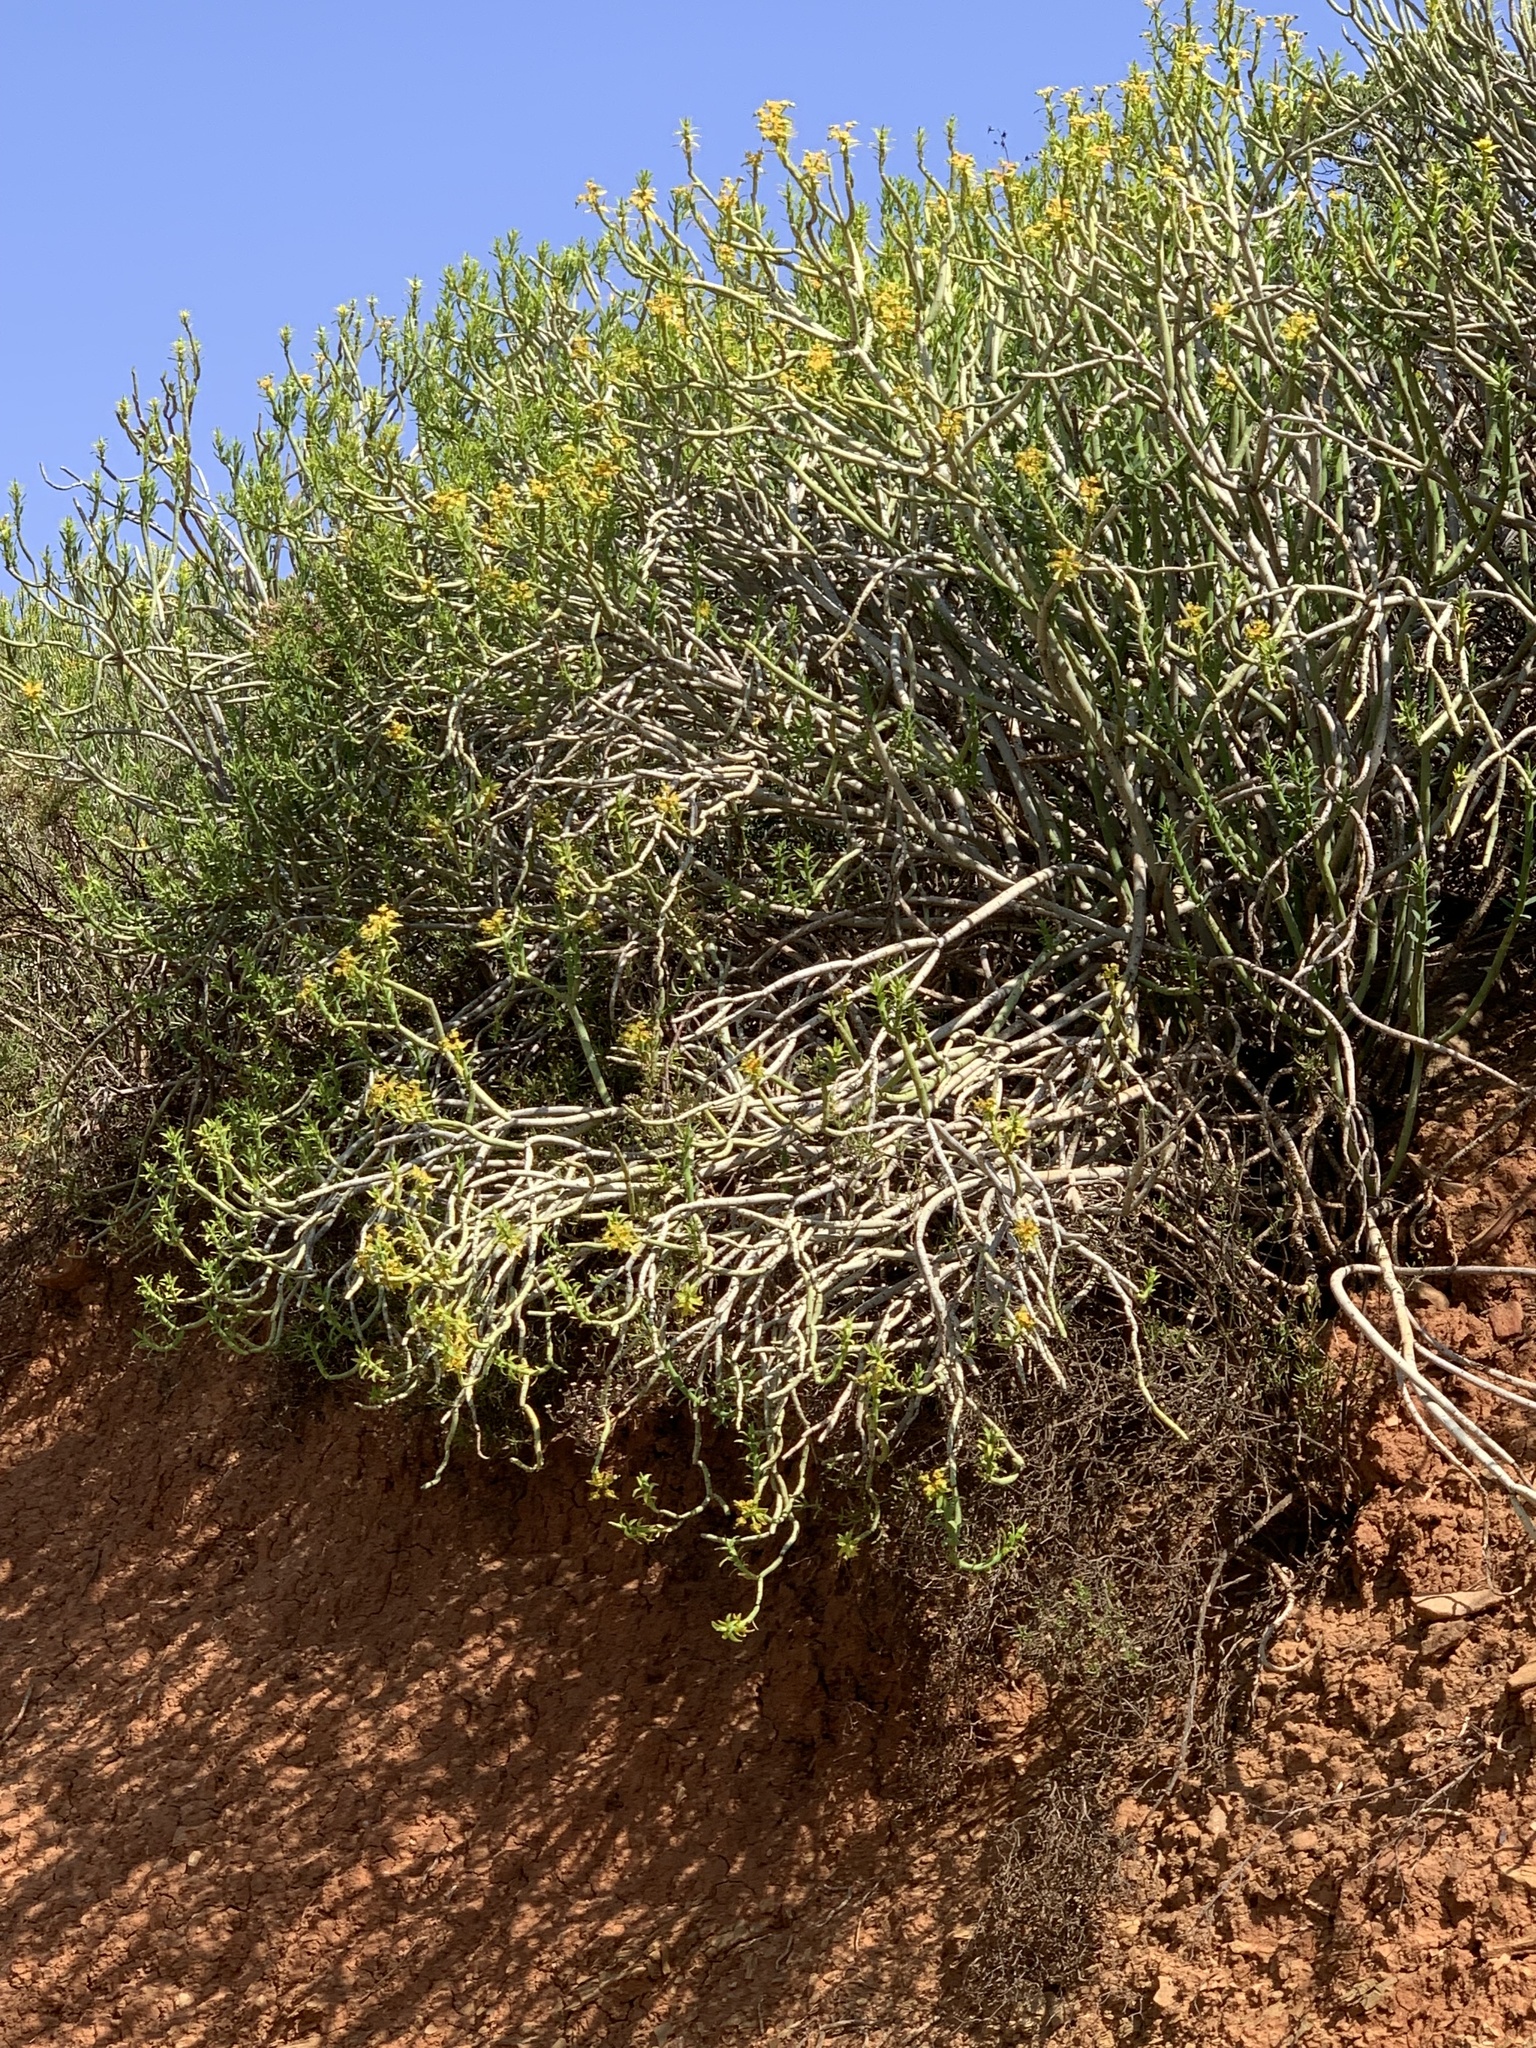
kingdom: Plantae
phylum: Tracheophyta
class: Magnoliopsida
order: Malpighiales
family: Euphorbiaceae
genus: Euphorbia
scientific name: Euphorbia mauritanica
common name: Jackal's-food
